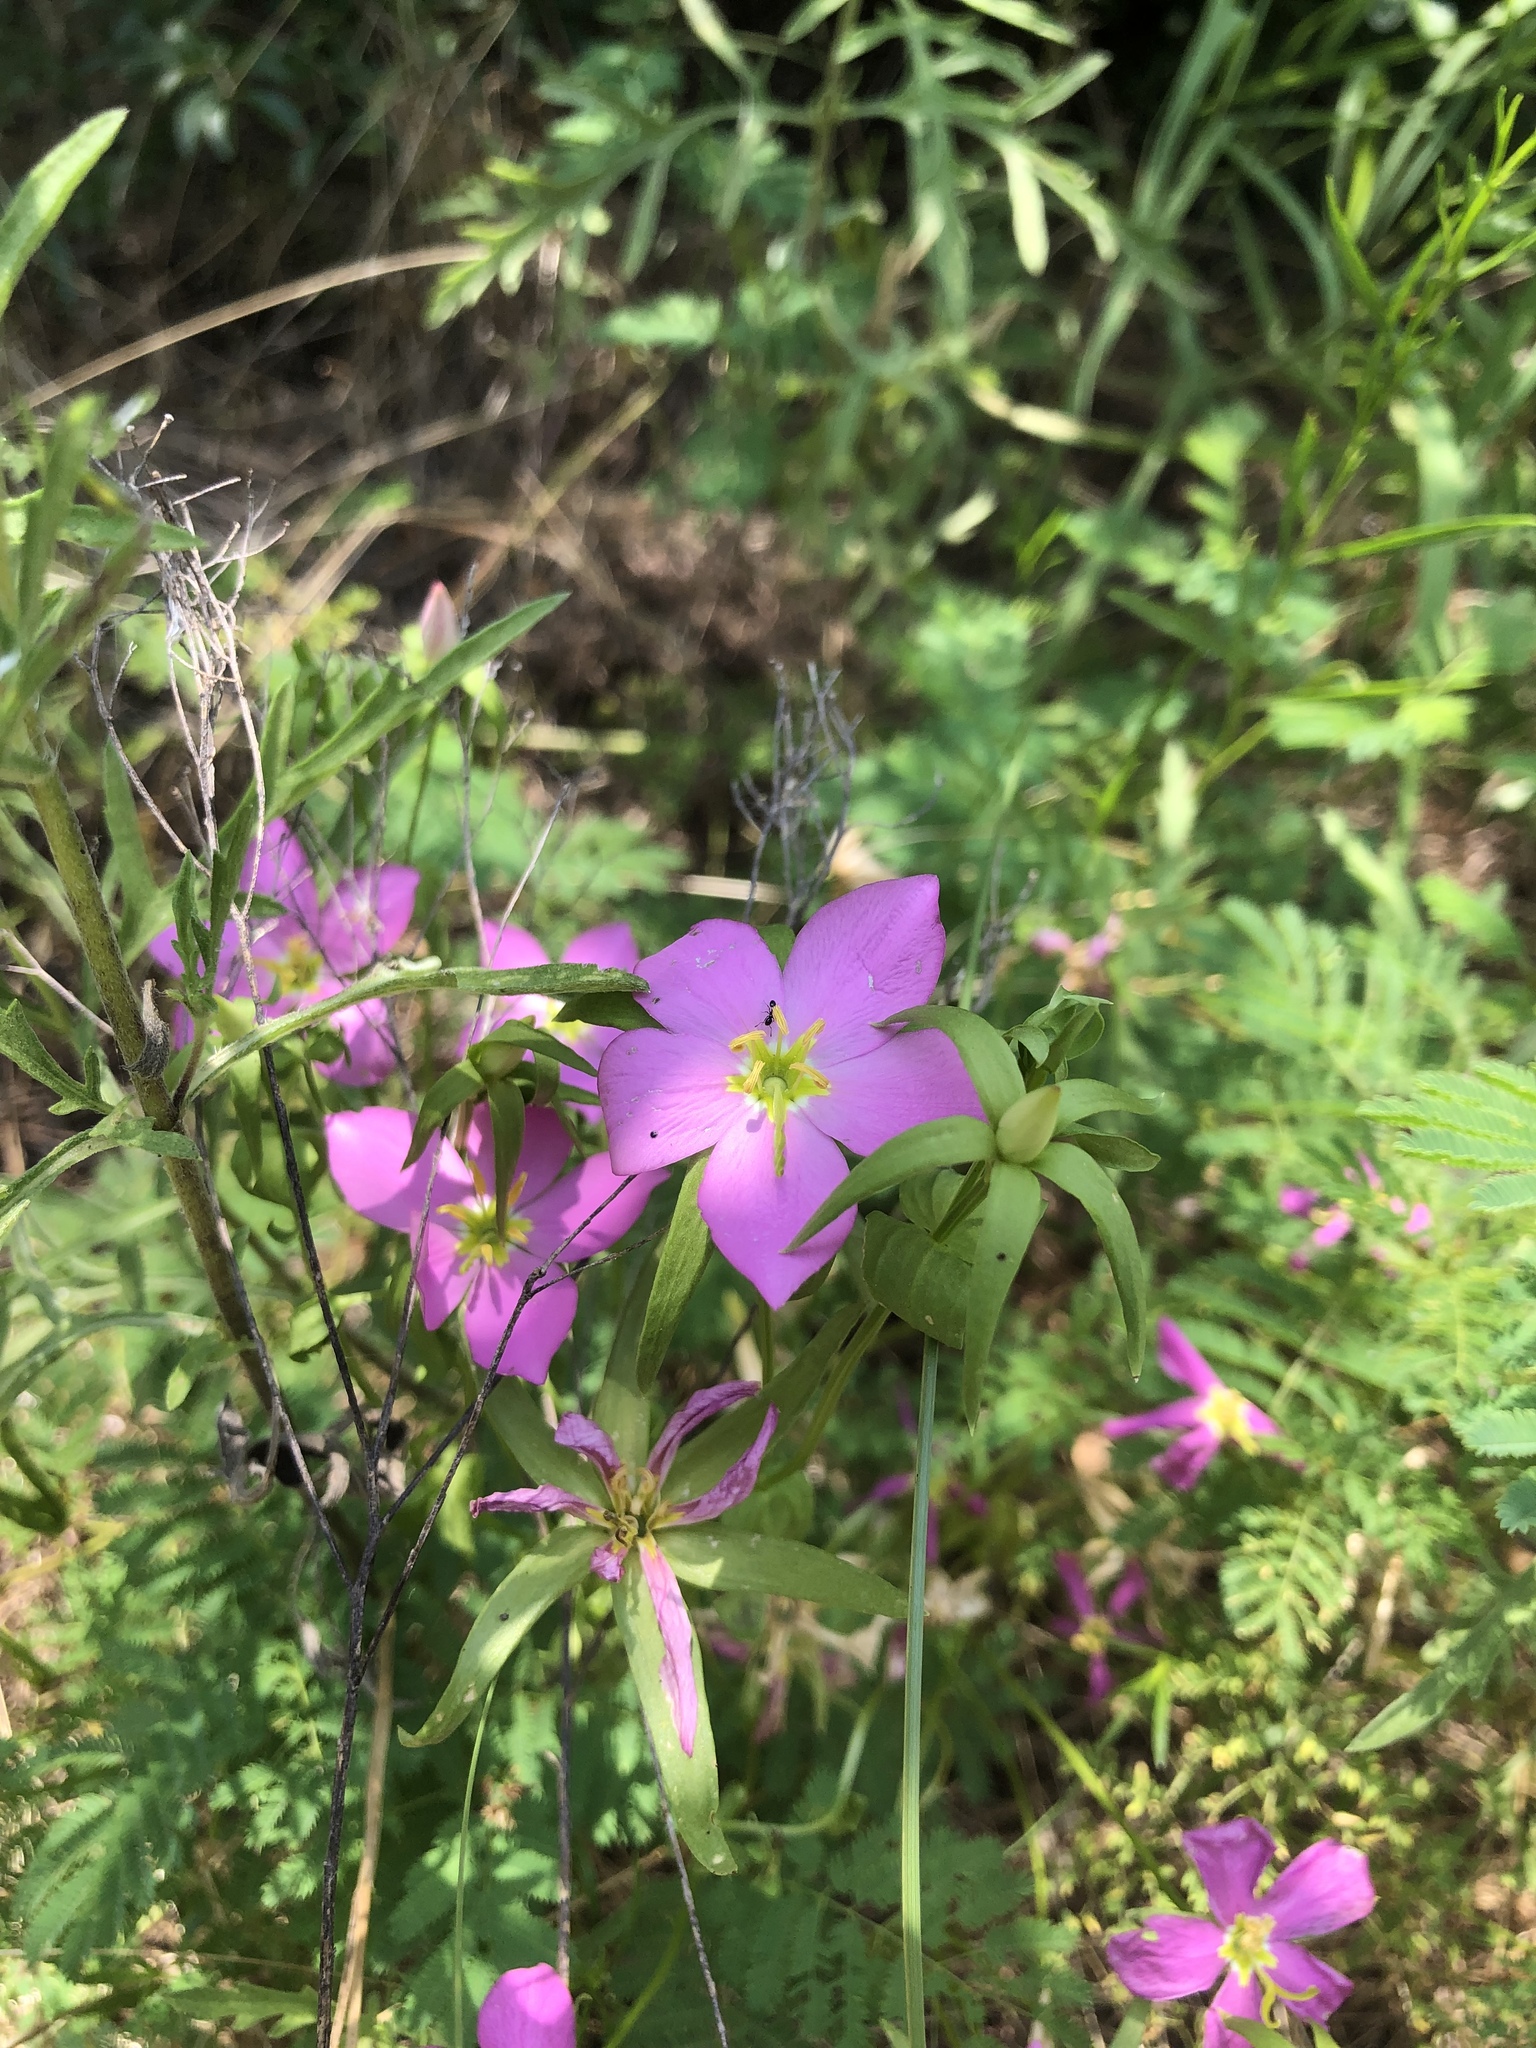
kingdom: Plantae
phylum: Tracheophyta
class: Magnoliopsida
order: Gentianales
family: Gentianaceae
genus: Sabatia
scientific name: Sabatia campestris
